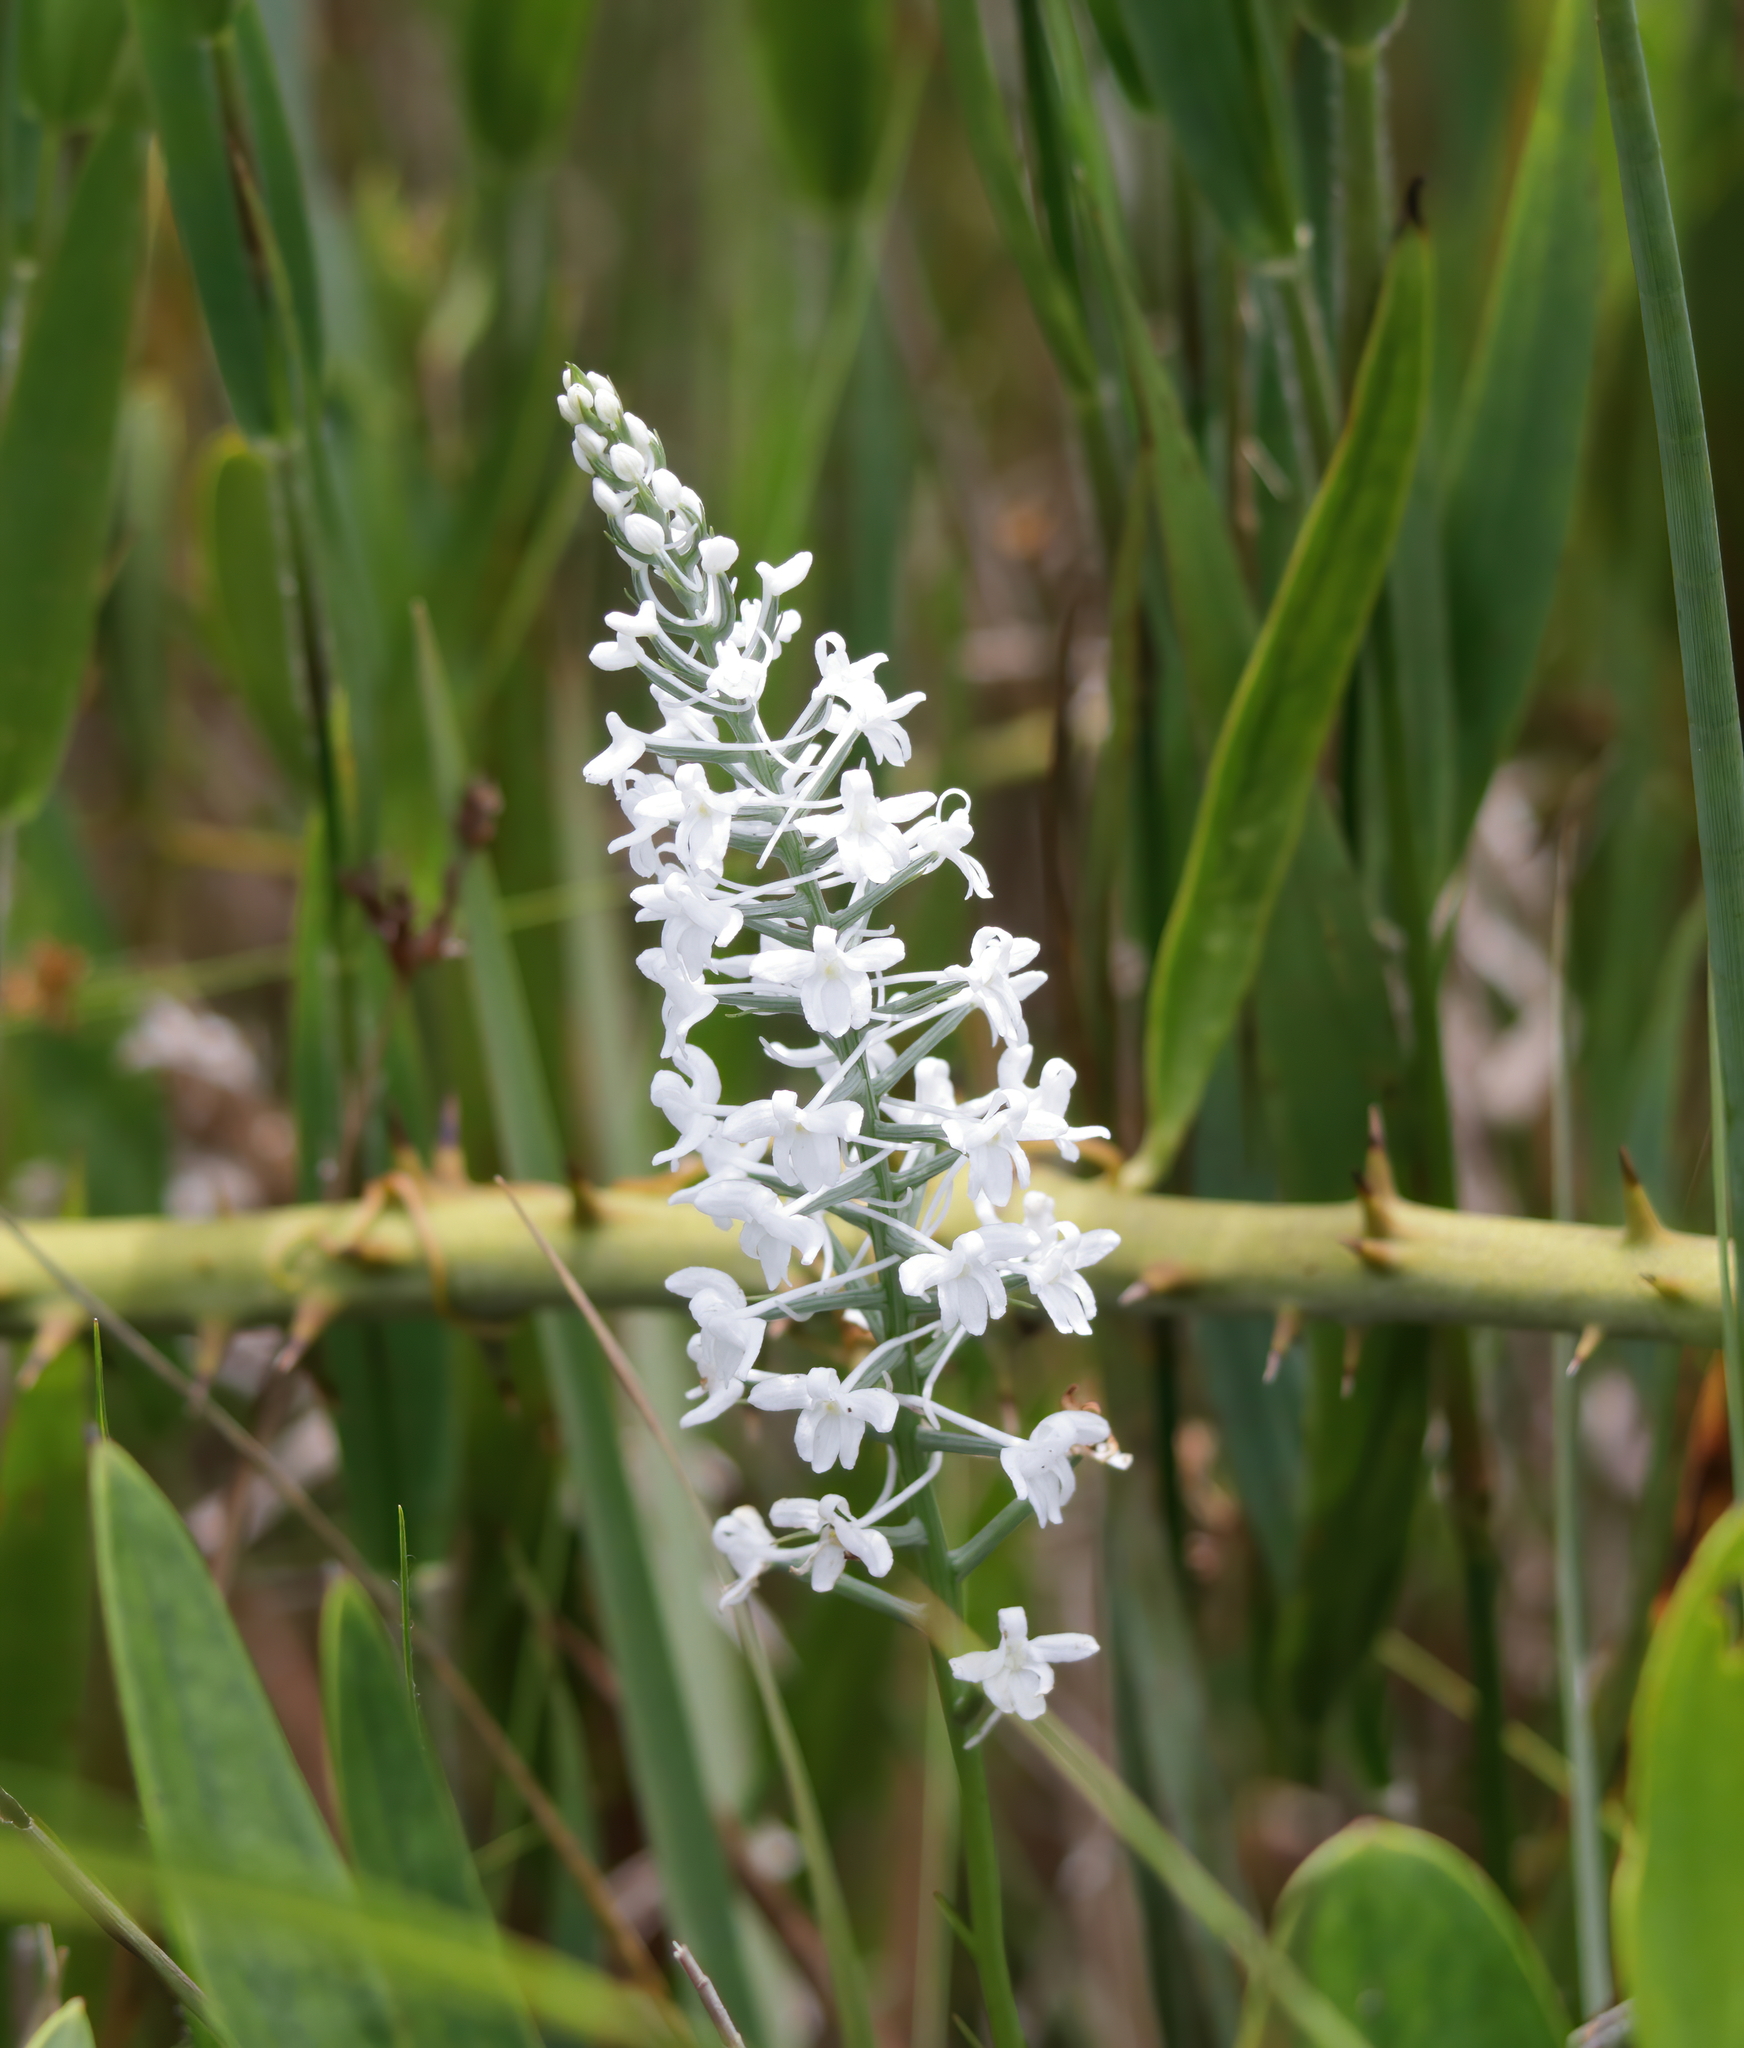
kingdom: Plantae
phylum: Tracheophyta
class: Liliopsida
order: Asparagales
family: Orchidaceae
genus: Platanthera
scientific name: Platanthera nivea
